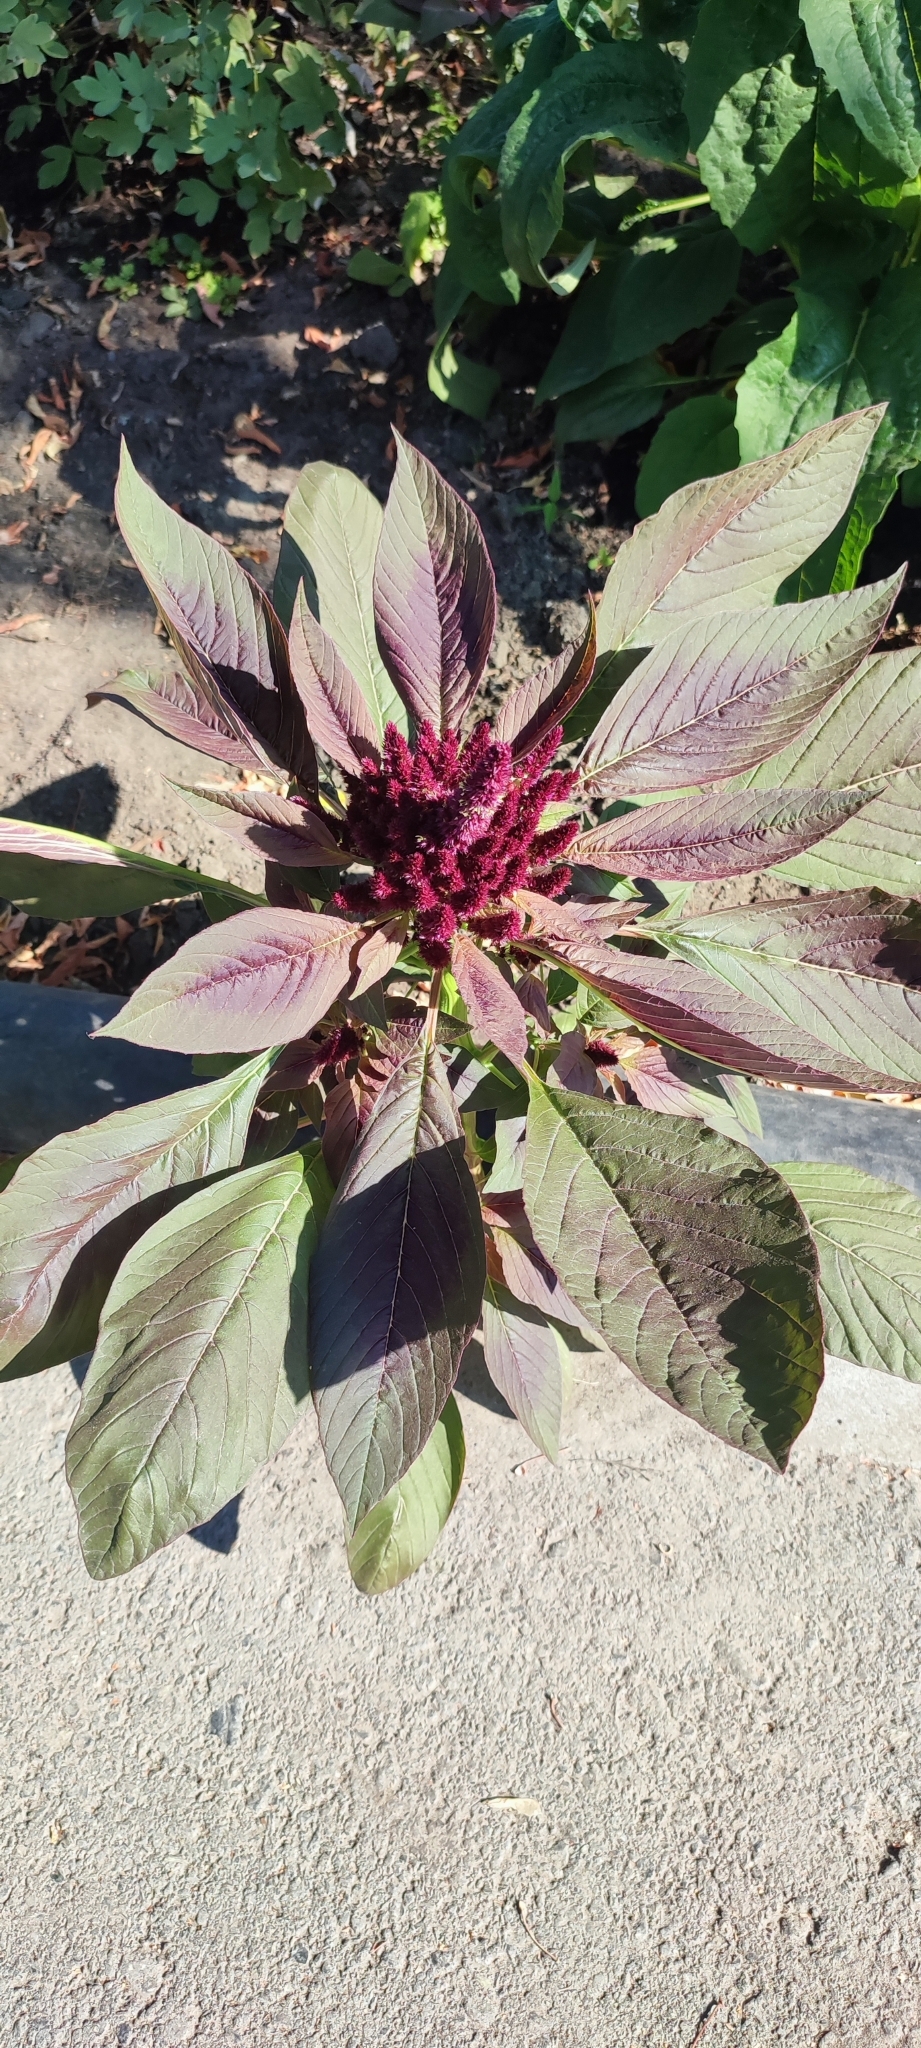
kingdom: Plantae
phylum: Tracheophyta
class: Magnoliopsida
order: Caryophyllales
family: Amaranthaceae
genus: Amaranthus
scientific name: Amaranthus cruentus
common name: Purple amaranth
